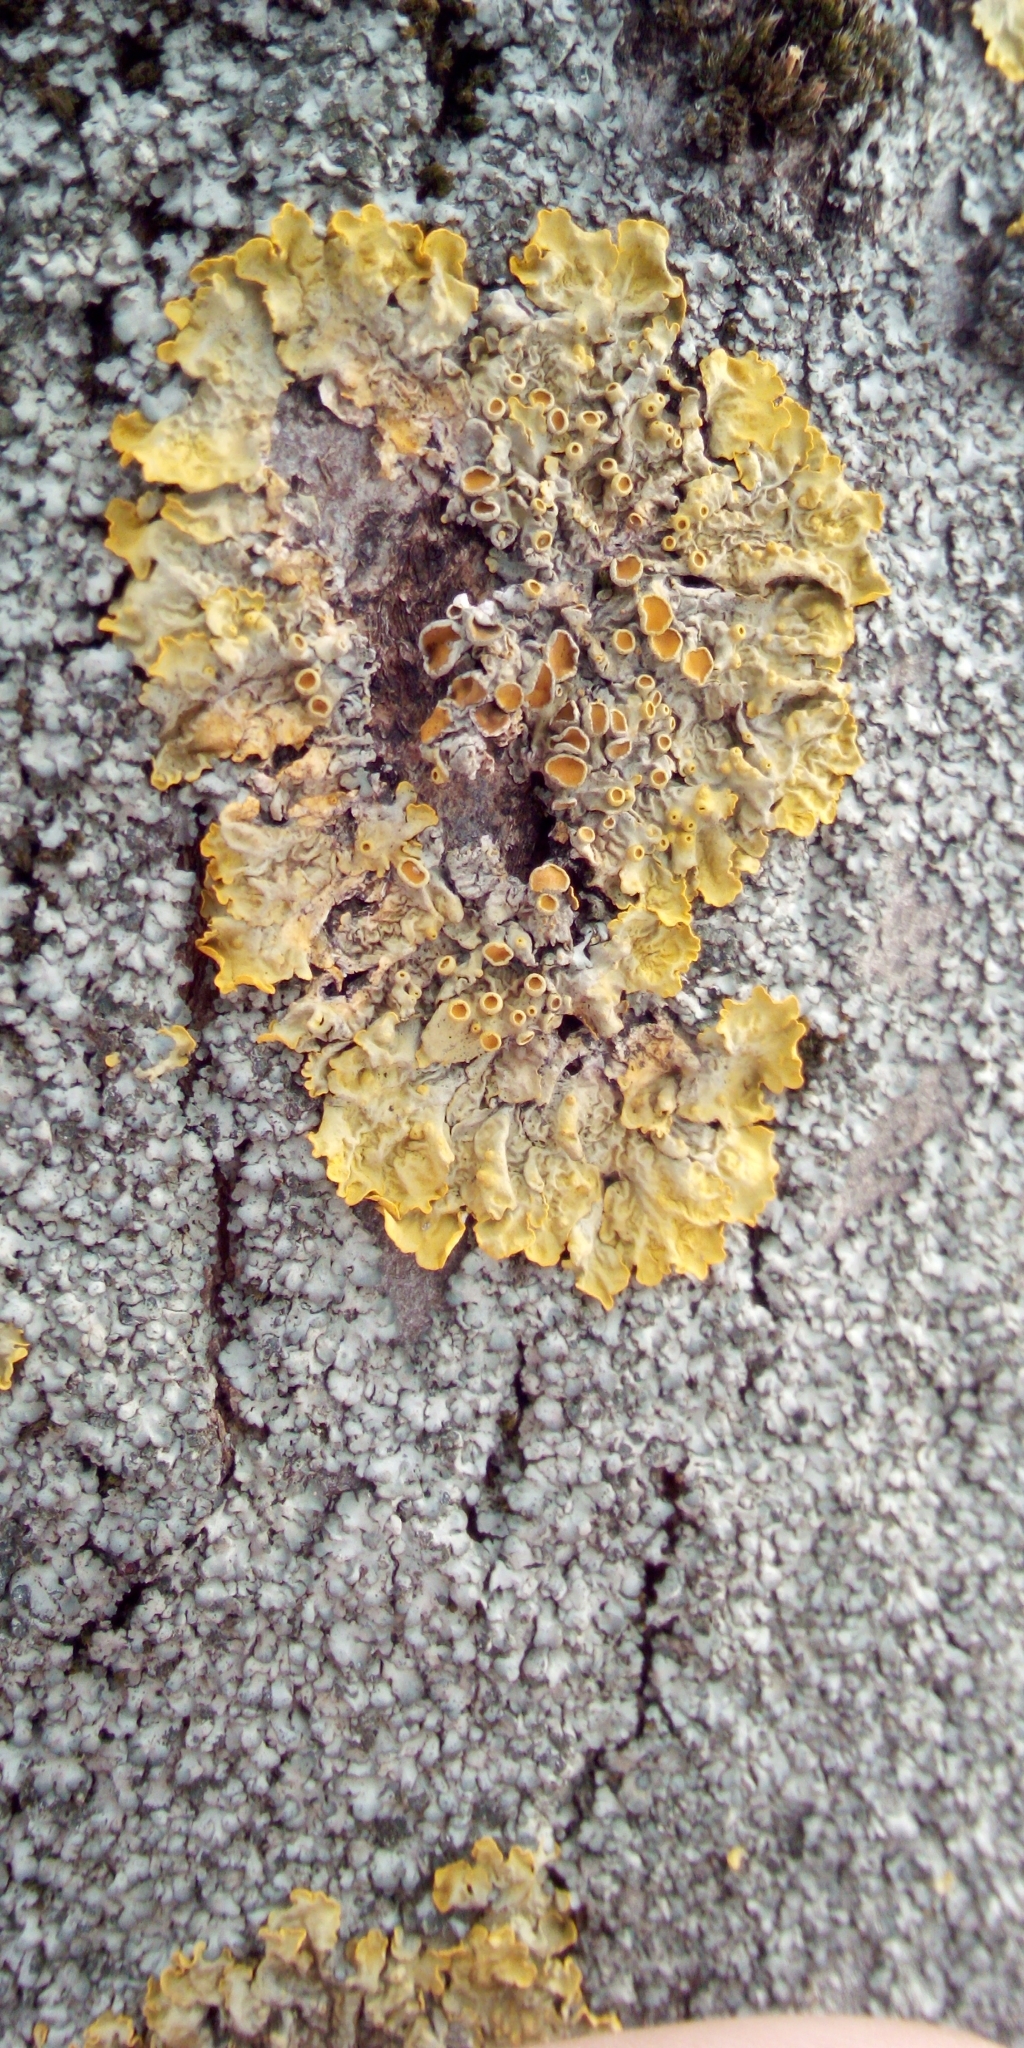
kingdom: Fungi
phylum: Ascomycota
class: Lecanoromycetes
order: Teloschistales
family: Teloschistaceae
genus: Xanthoria
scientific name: Xanthoria parietina
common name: Common orange lichen
